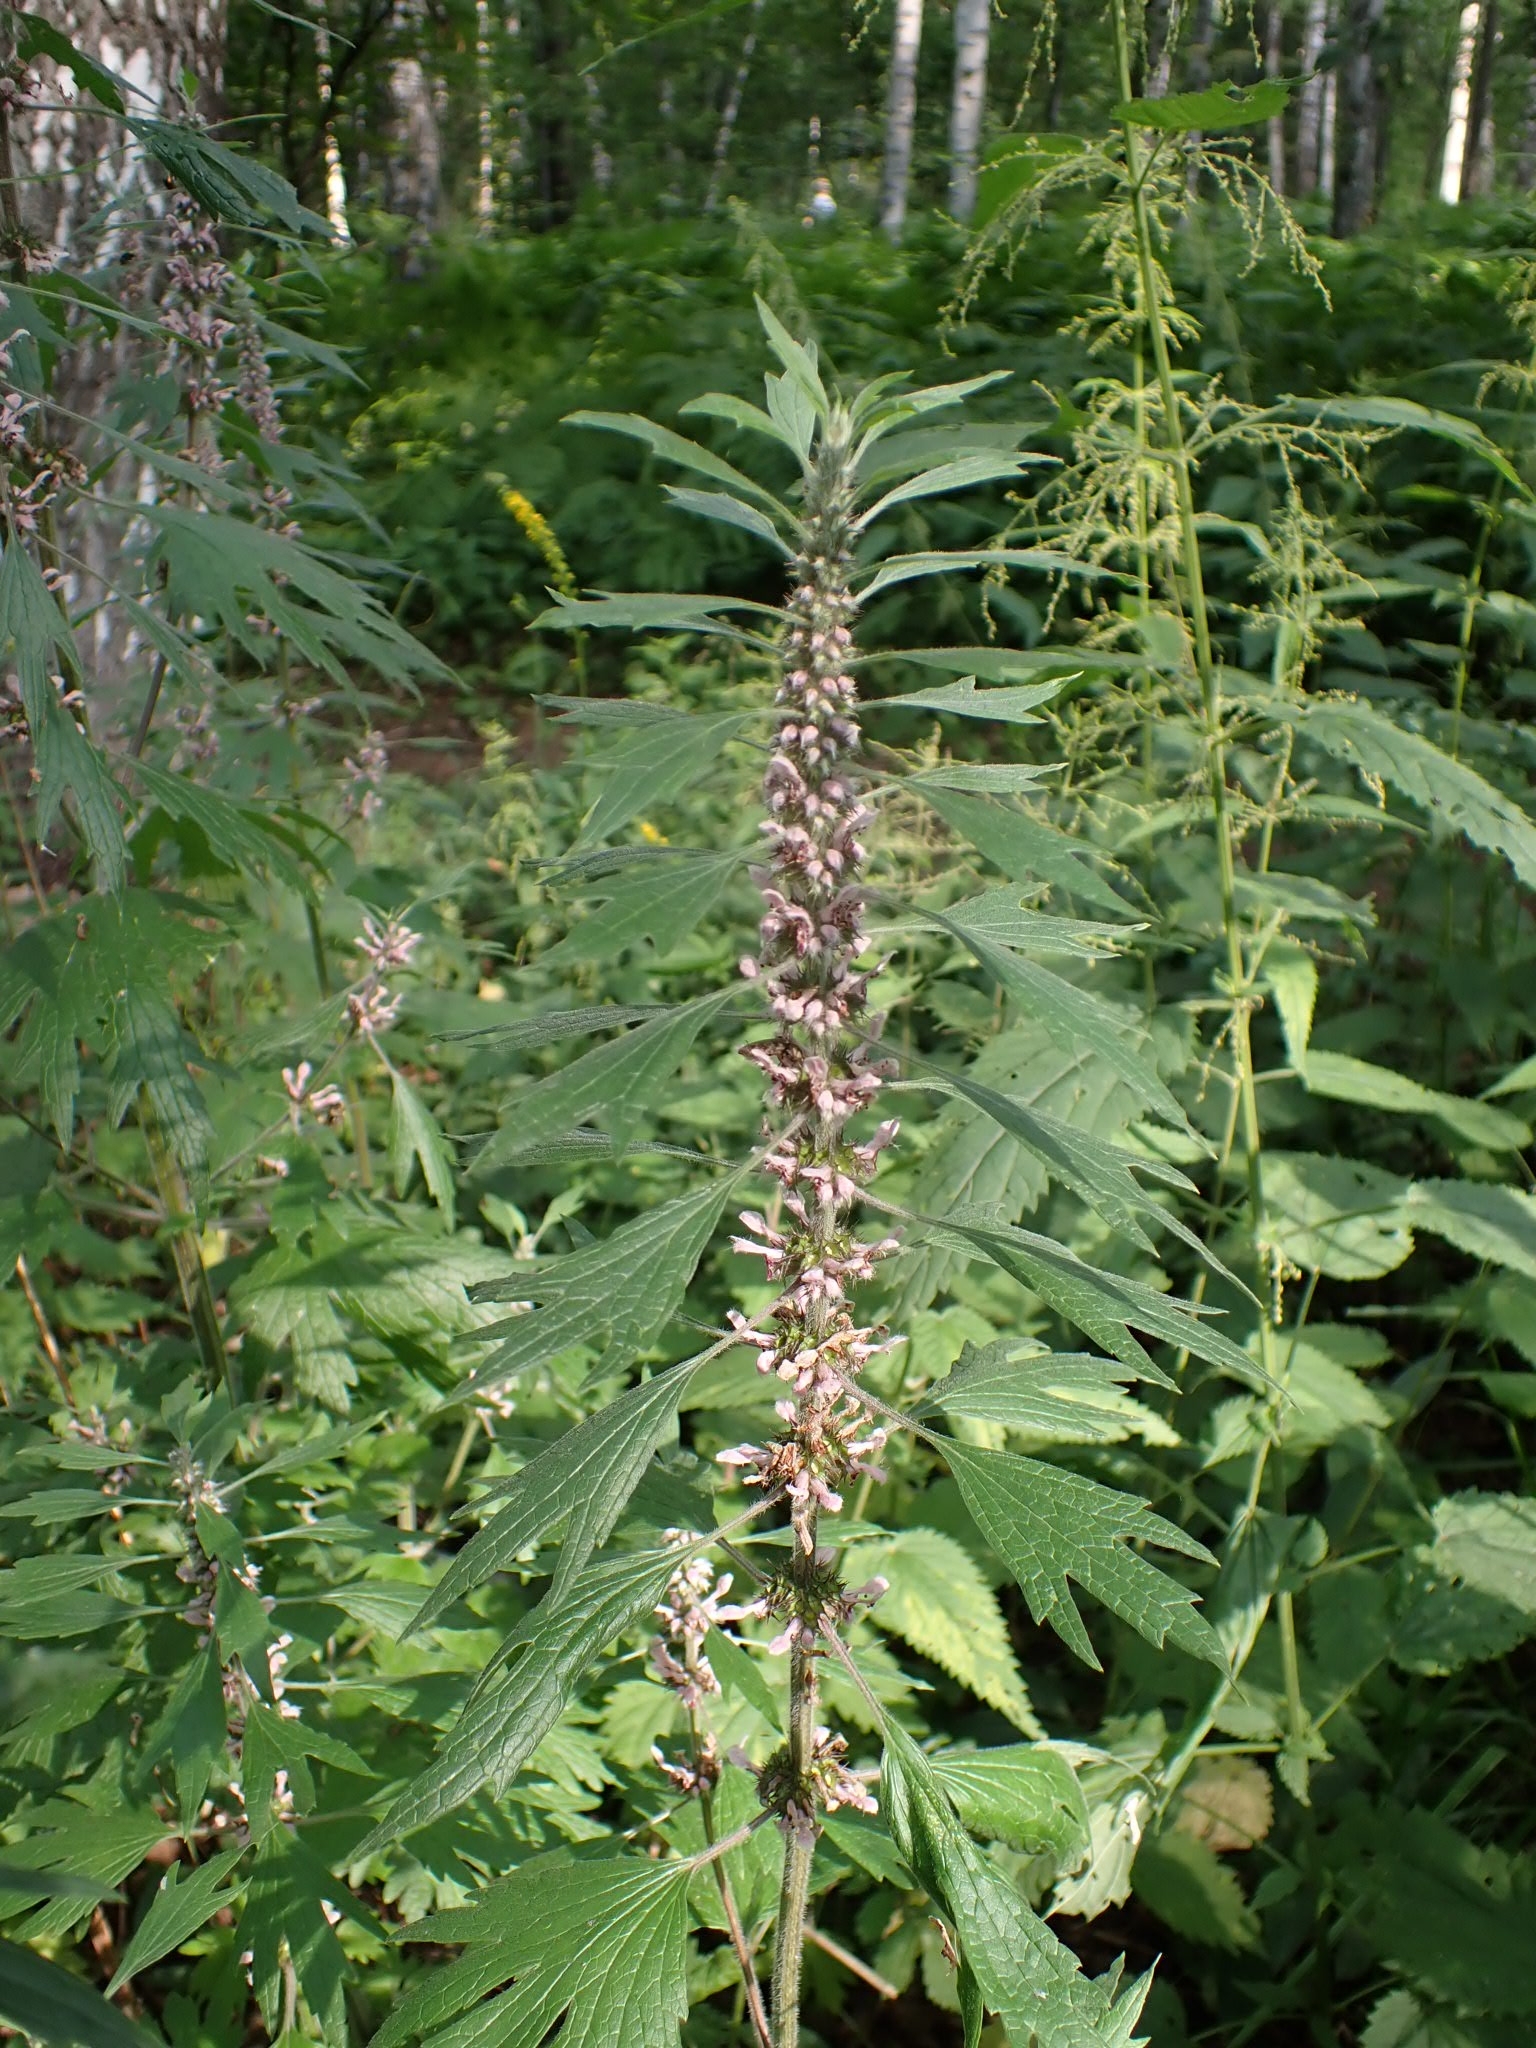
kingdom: Plantae
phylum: Tracheophyta
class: Magnoliopsida
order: Lamiales
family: Lamiaceae
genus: Leonurus
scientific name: Leonurus quinquelobatus
